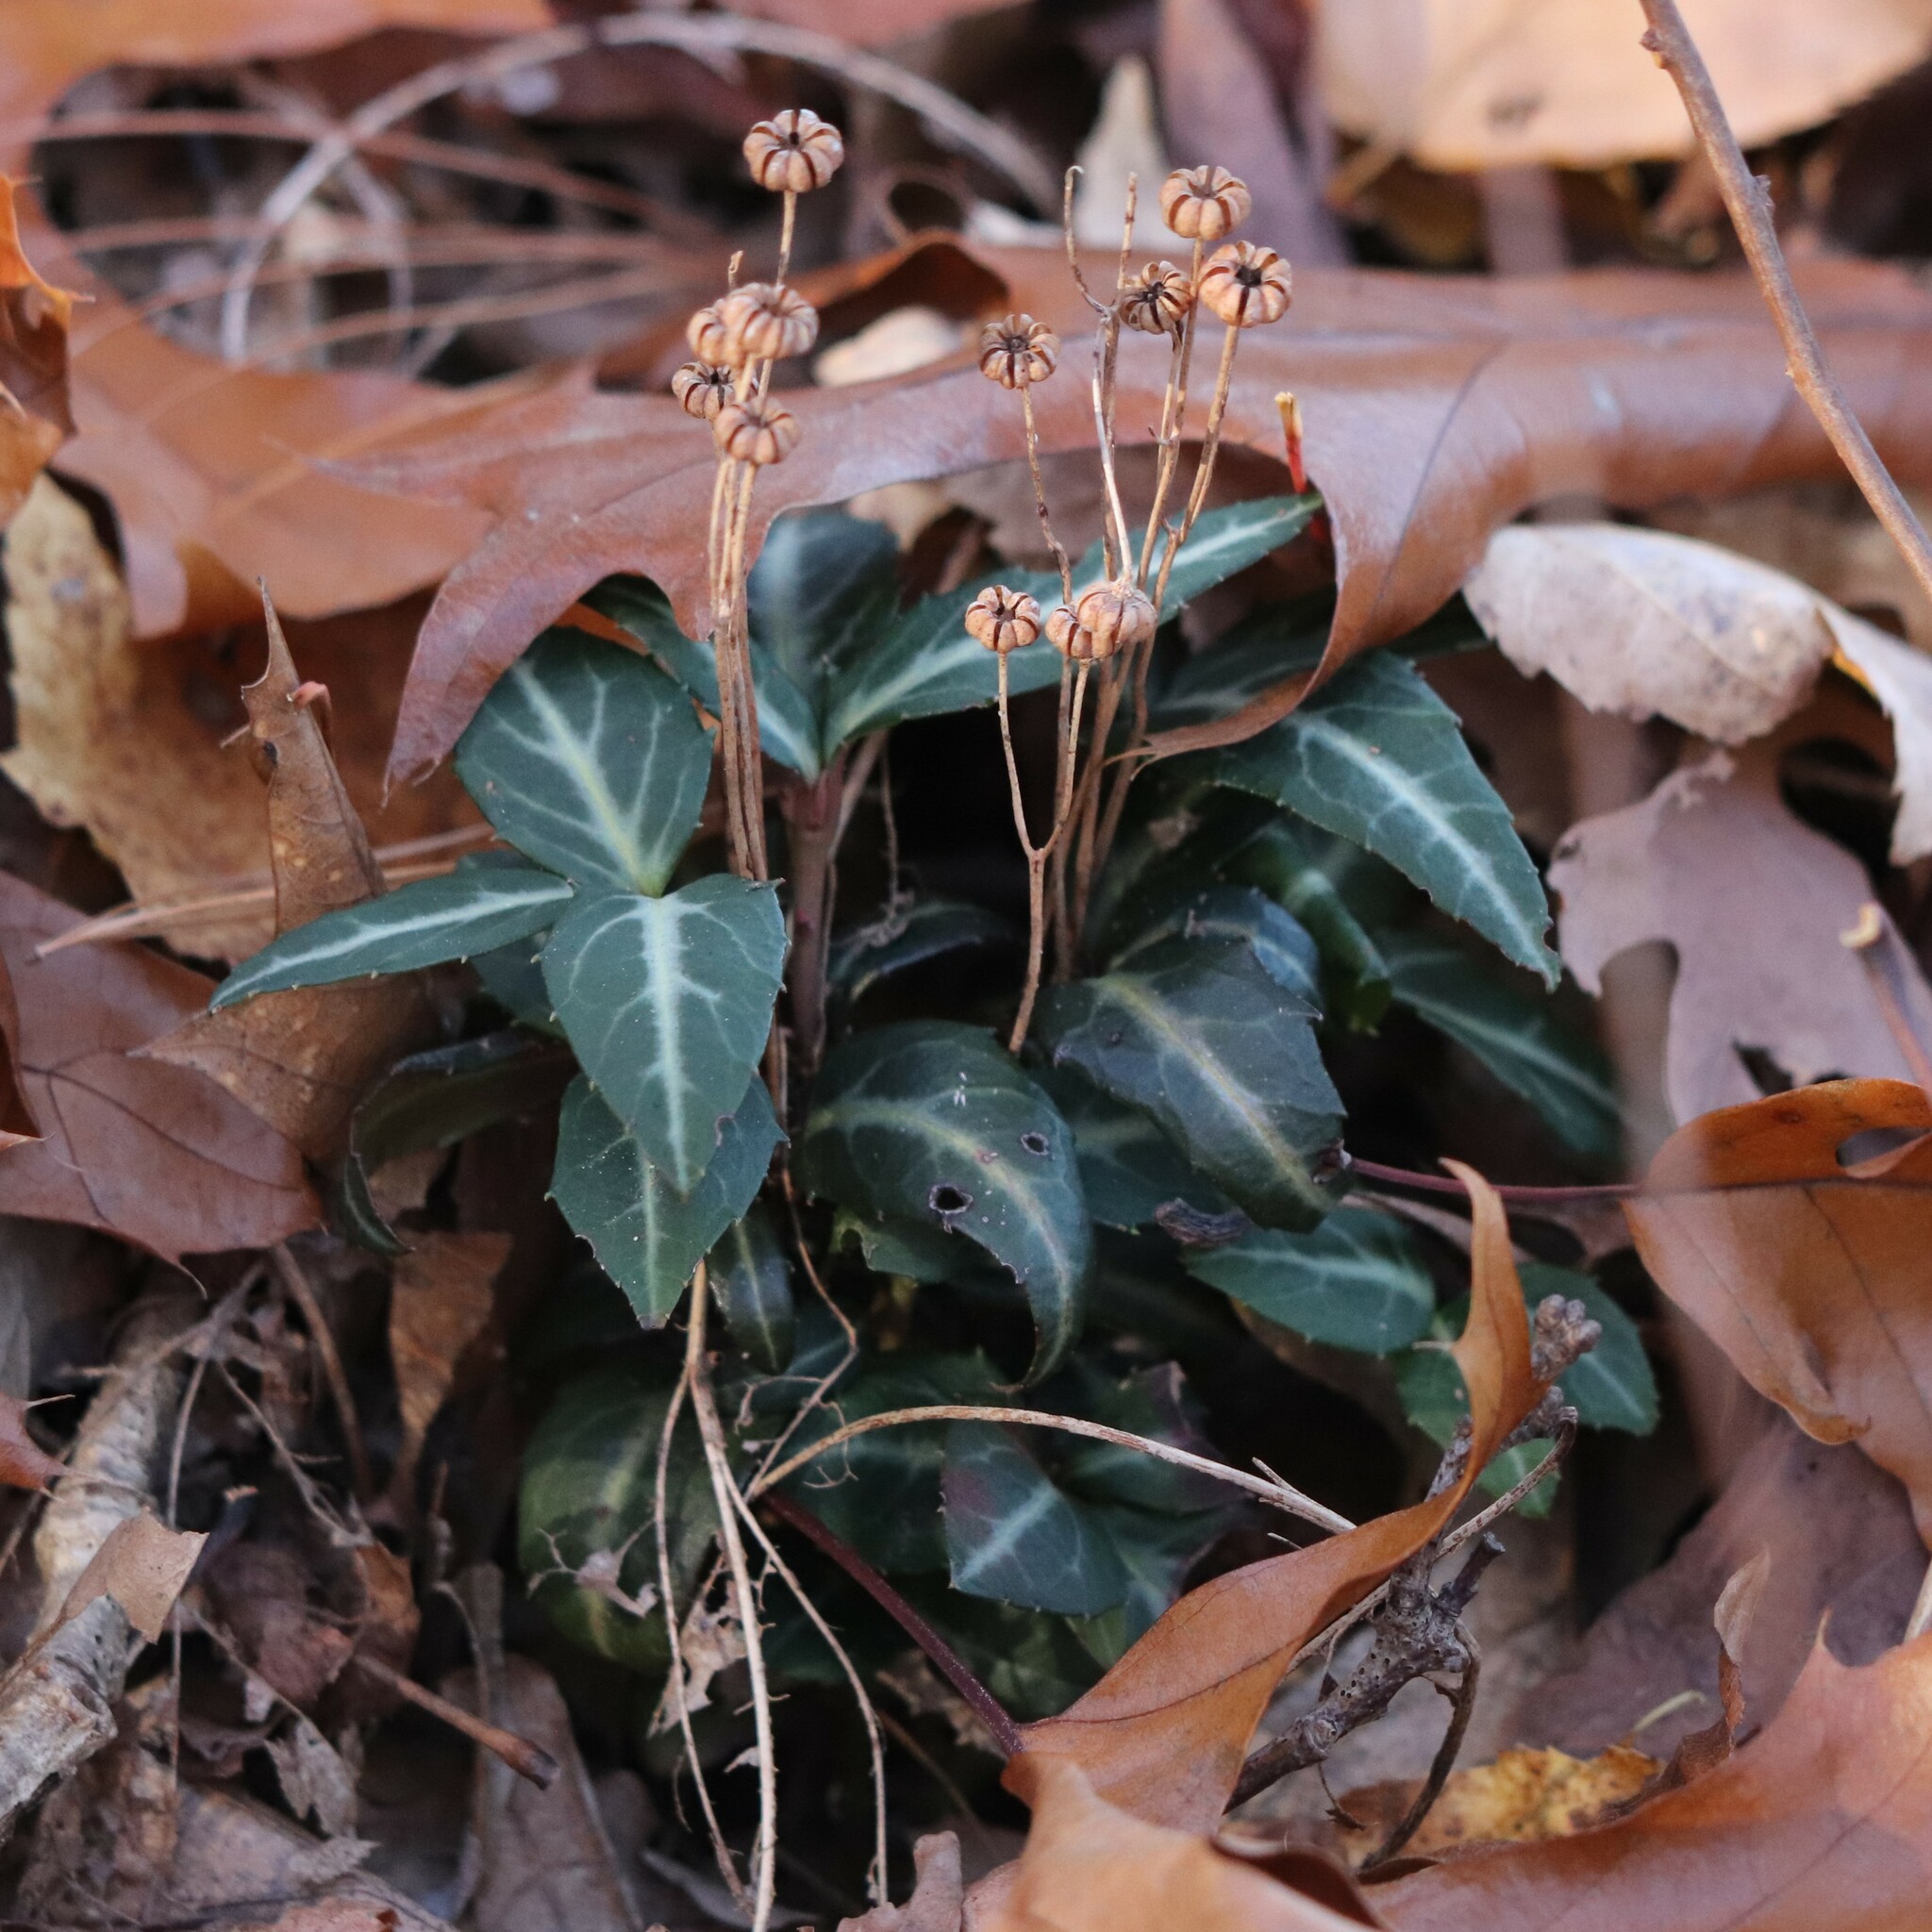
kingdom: Plantae
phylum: Tracheophyta
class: Magnoliopsida
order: Ericales
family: Ericaceae
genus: Chimaphila
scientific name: Chimaphila maculata
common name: Spotted pipsissewa
